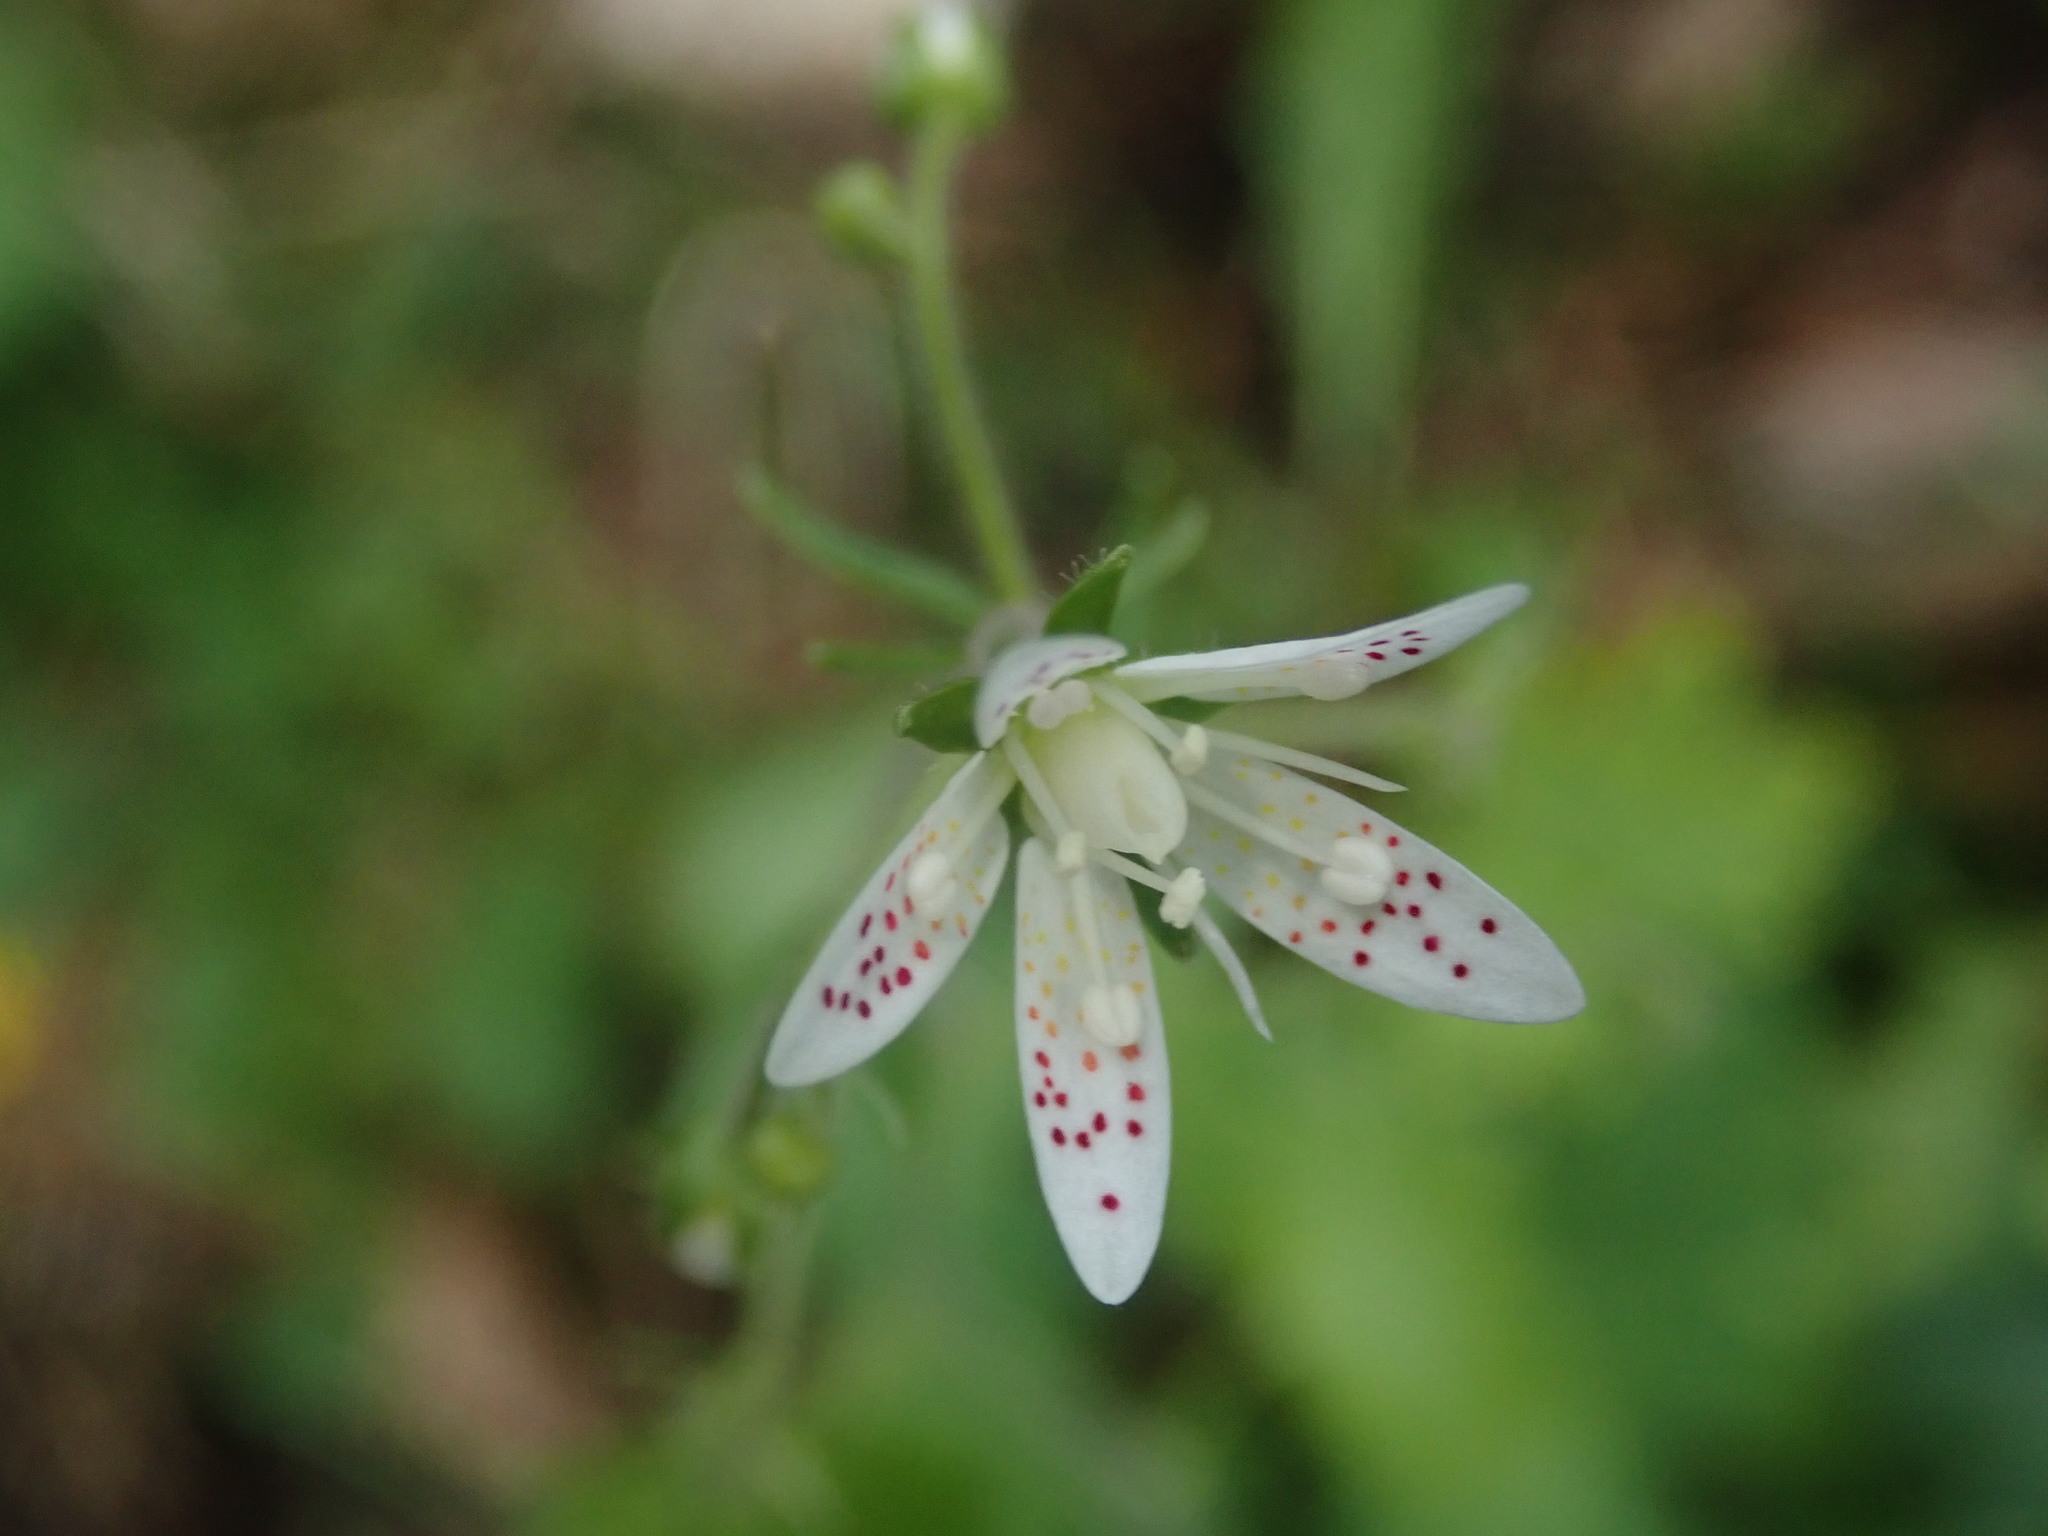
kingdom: Plantae
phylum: Tracheophyta
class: Magnoliopsida
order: Saxifragales
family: Saxifragaceae
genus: Saxifraga
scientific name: Saxifraga rotundifolia
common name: Round-leaved saxifrage
